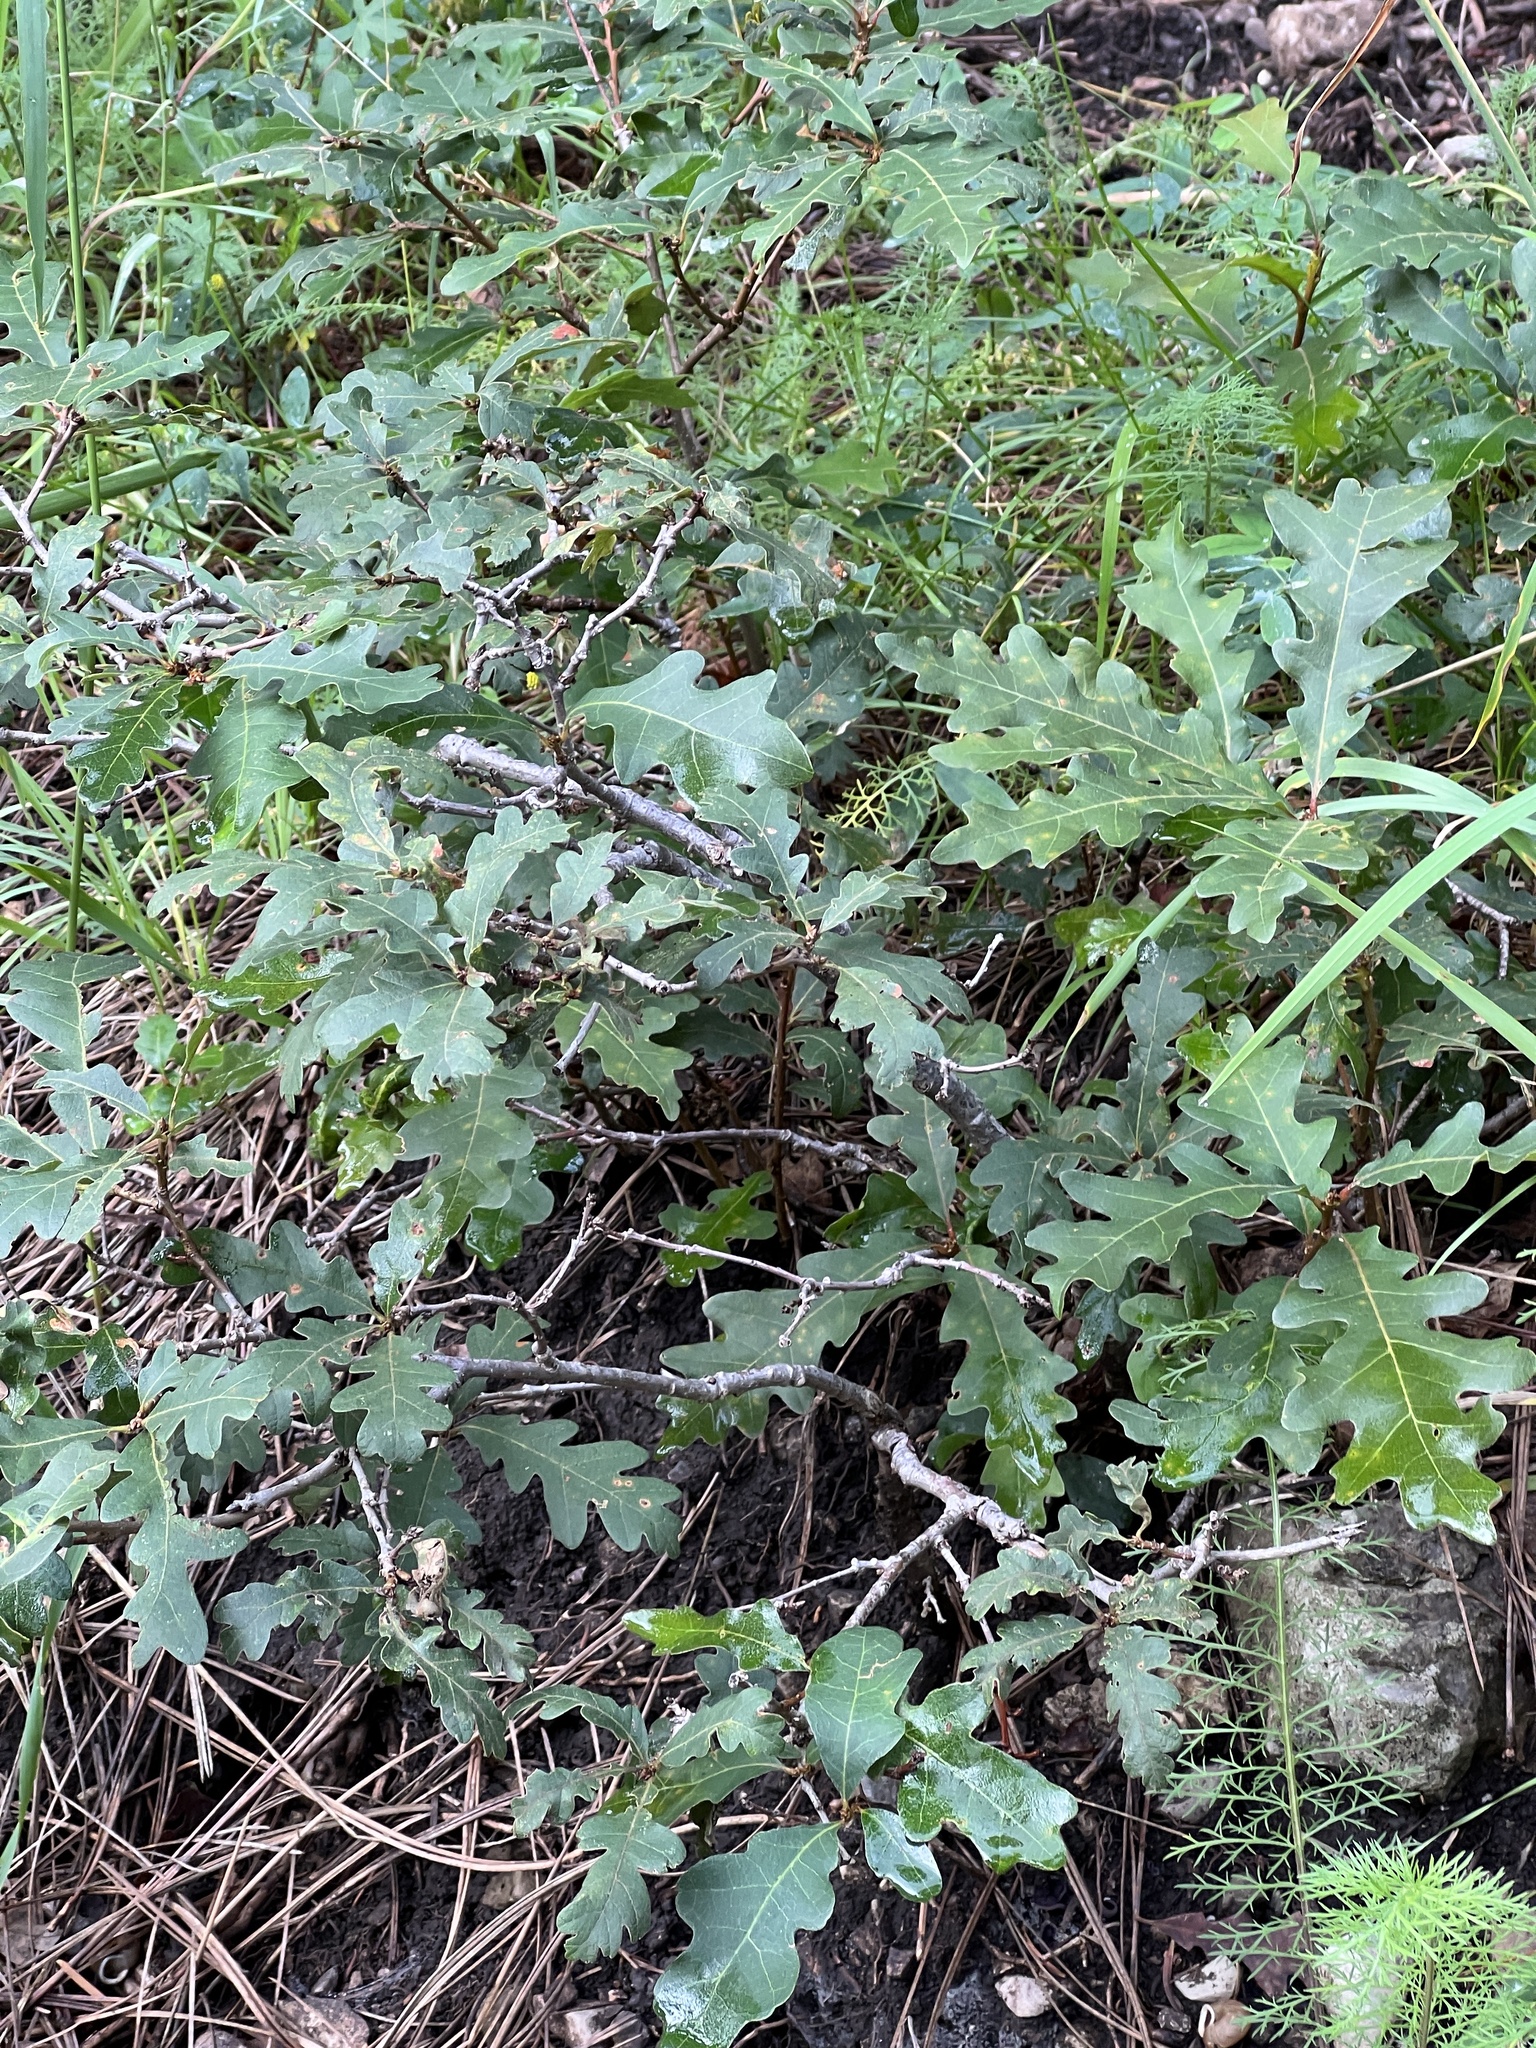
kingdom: Plantae
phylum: Tracheophyta
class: Magnoliopsida
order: Fagales
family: Fagaceae
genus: Quercus
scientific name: Quercus gambelii
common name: Gambel oak
